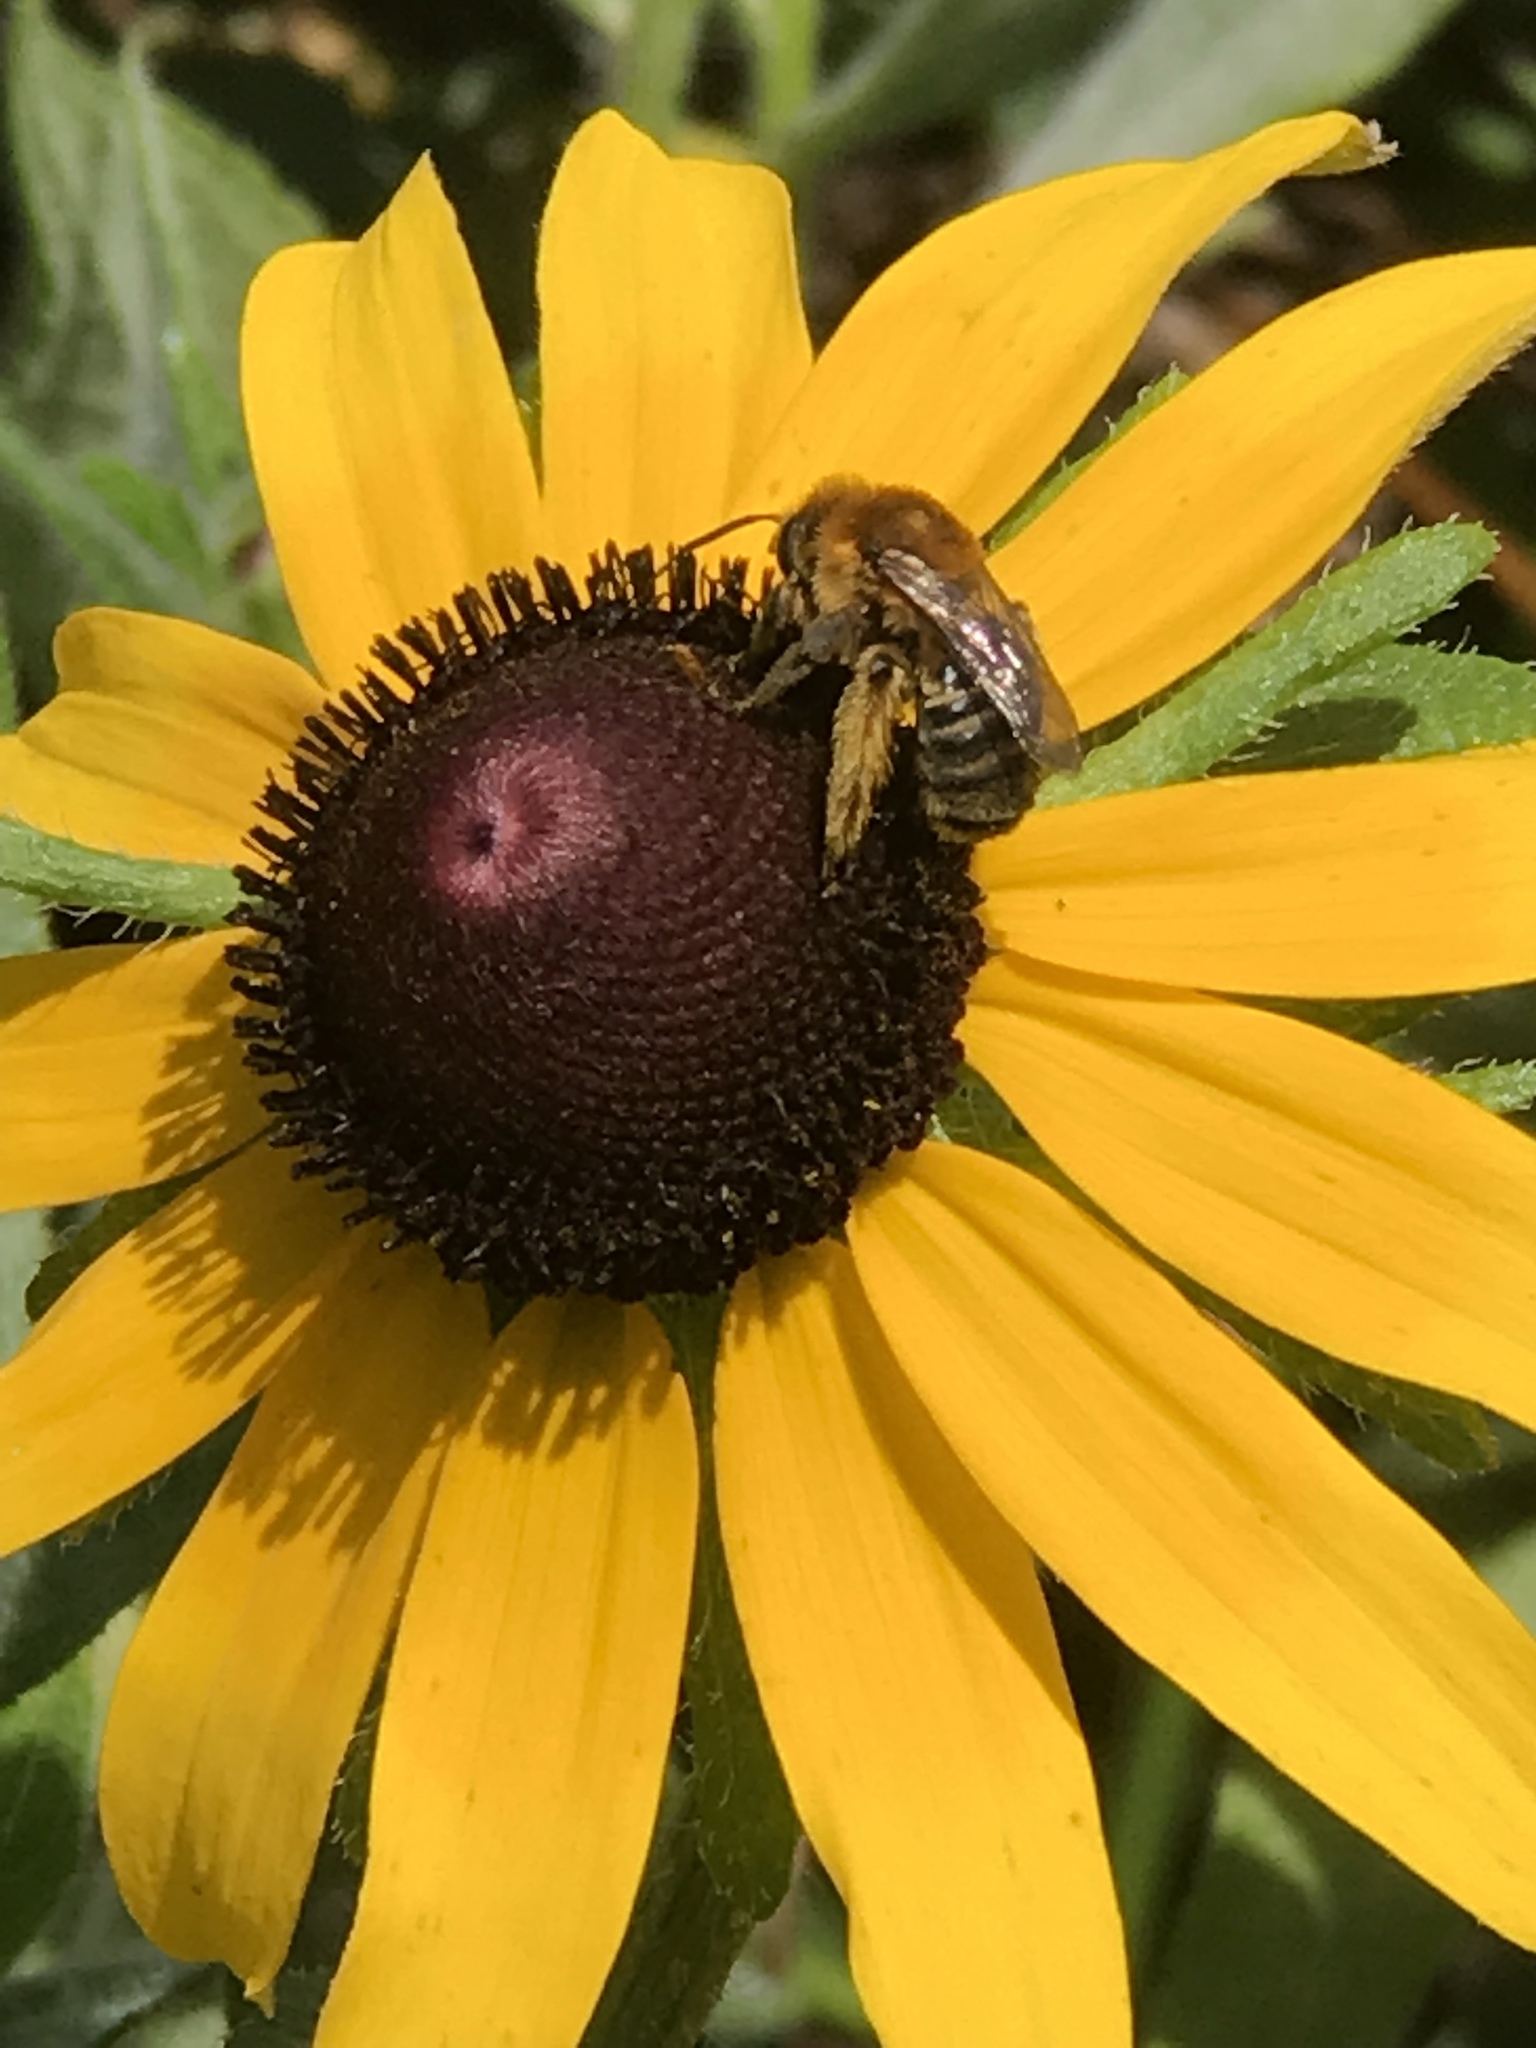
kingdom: Animalia
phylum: Arthropoda
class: Insecta
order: Hymenoptera
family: Apidae
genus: Melissodes
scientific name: Melissodes trinodis
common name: Dark-veined longhorn
